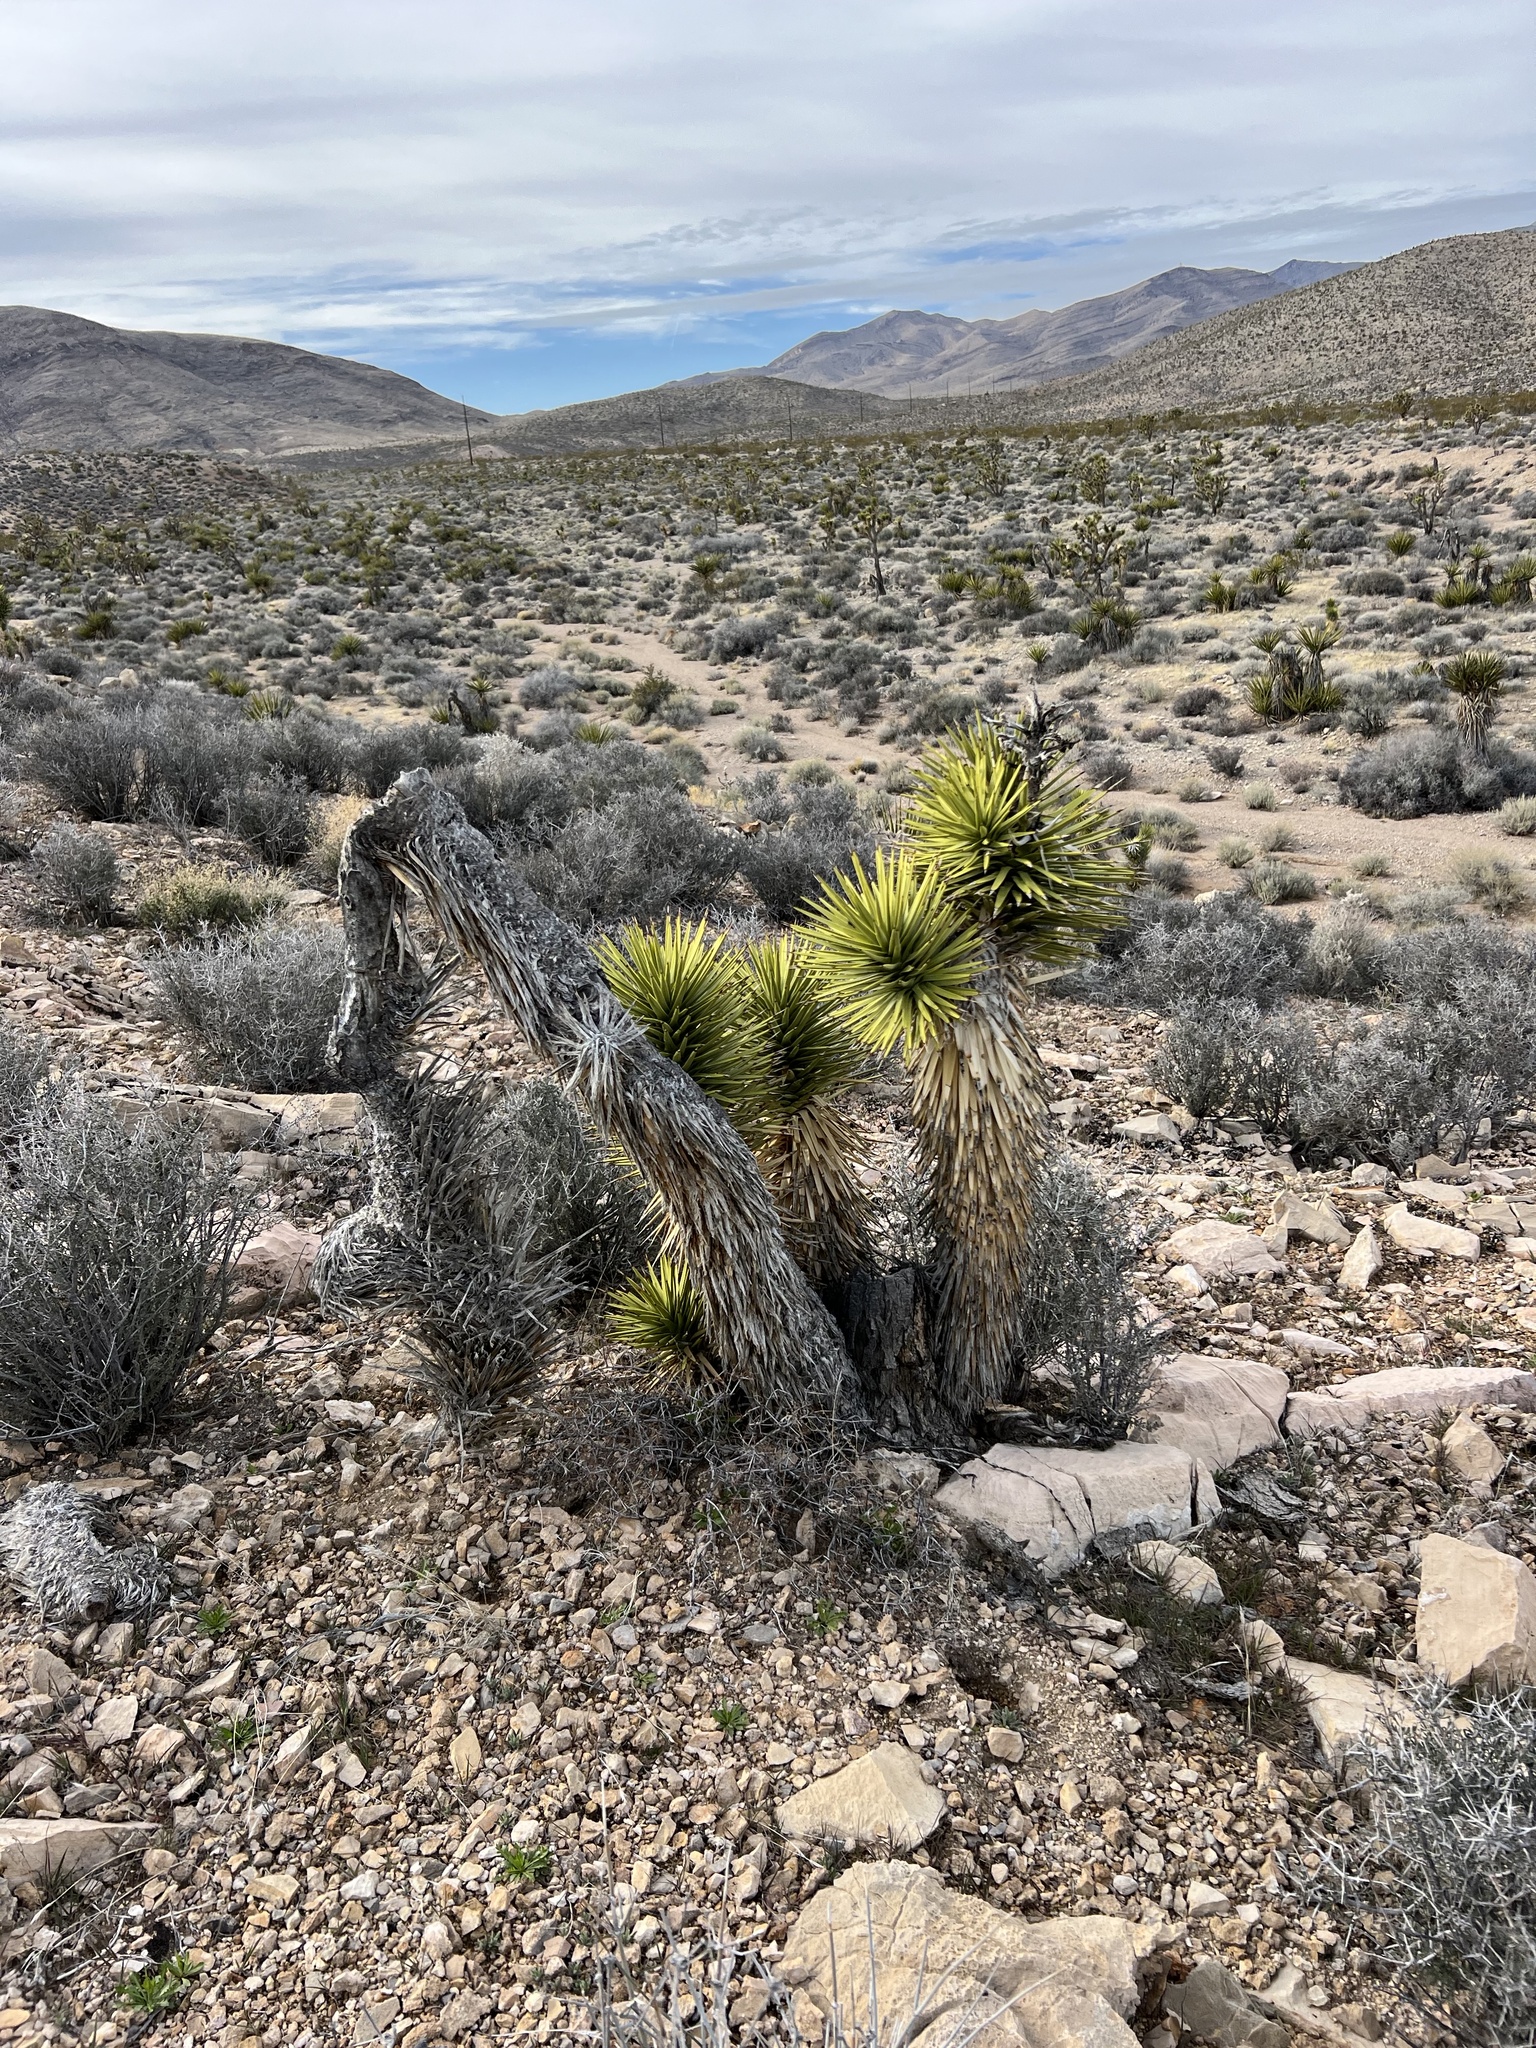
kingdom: Plantae
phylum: Tracheophyta
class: Liliopsida
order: Asparagales
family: Asparagaceae
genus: Yucca
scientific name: Yucca brevifolia
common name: Joshua tree
